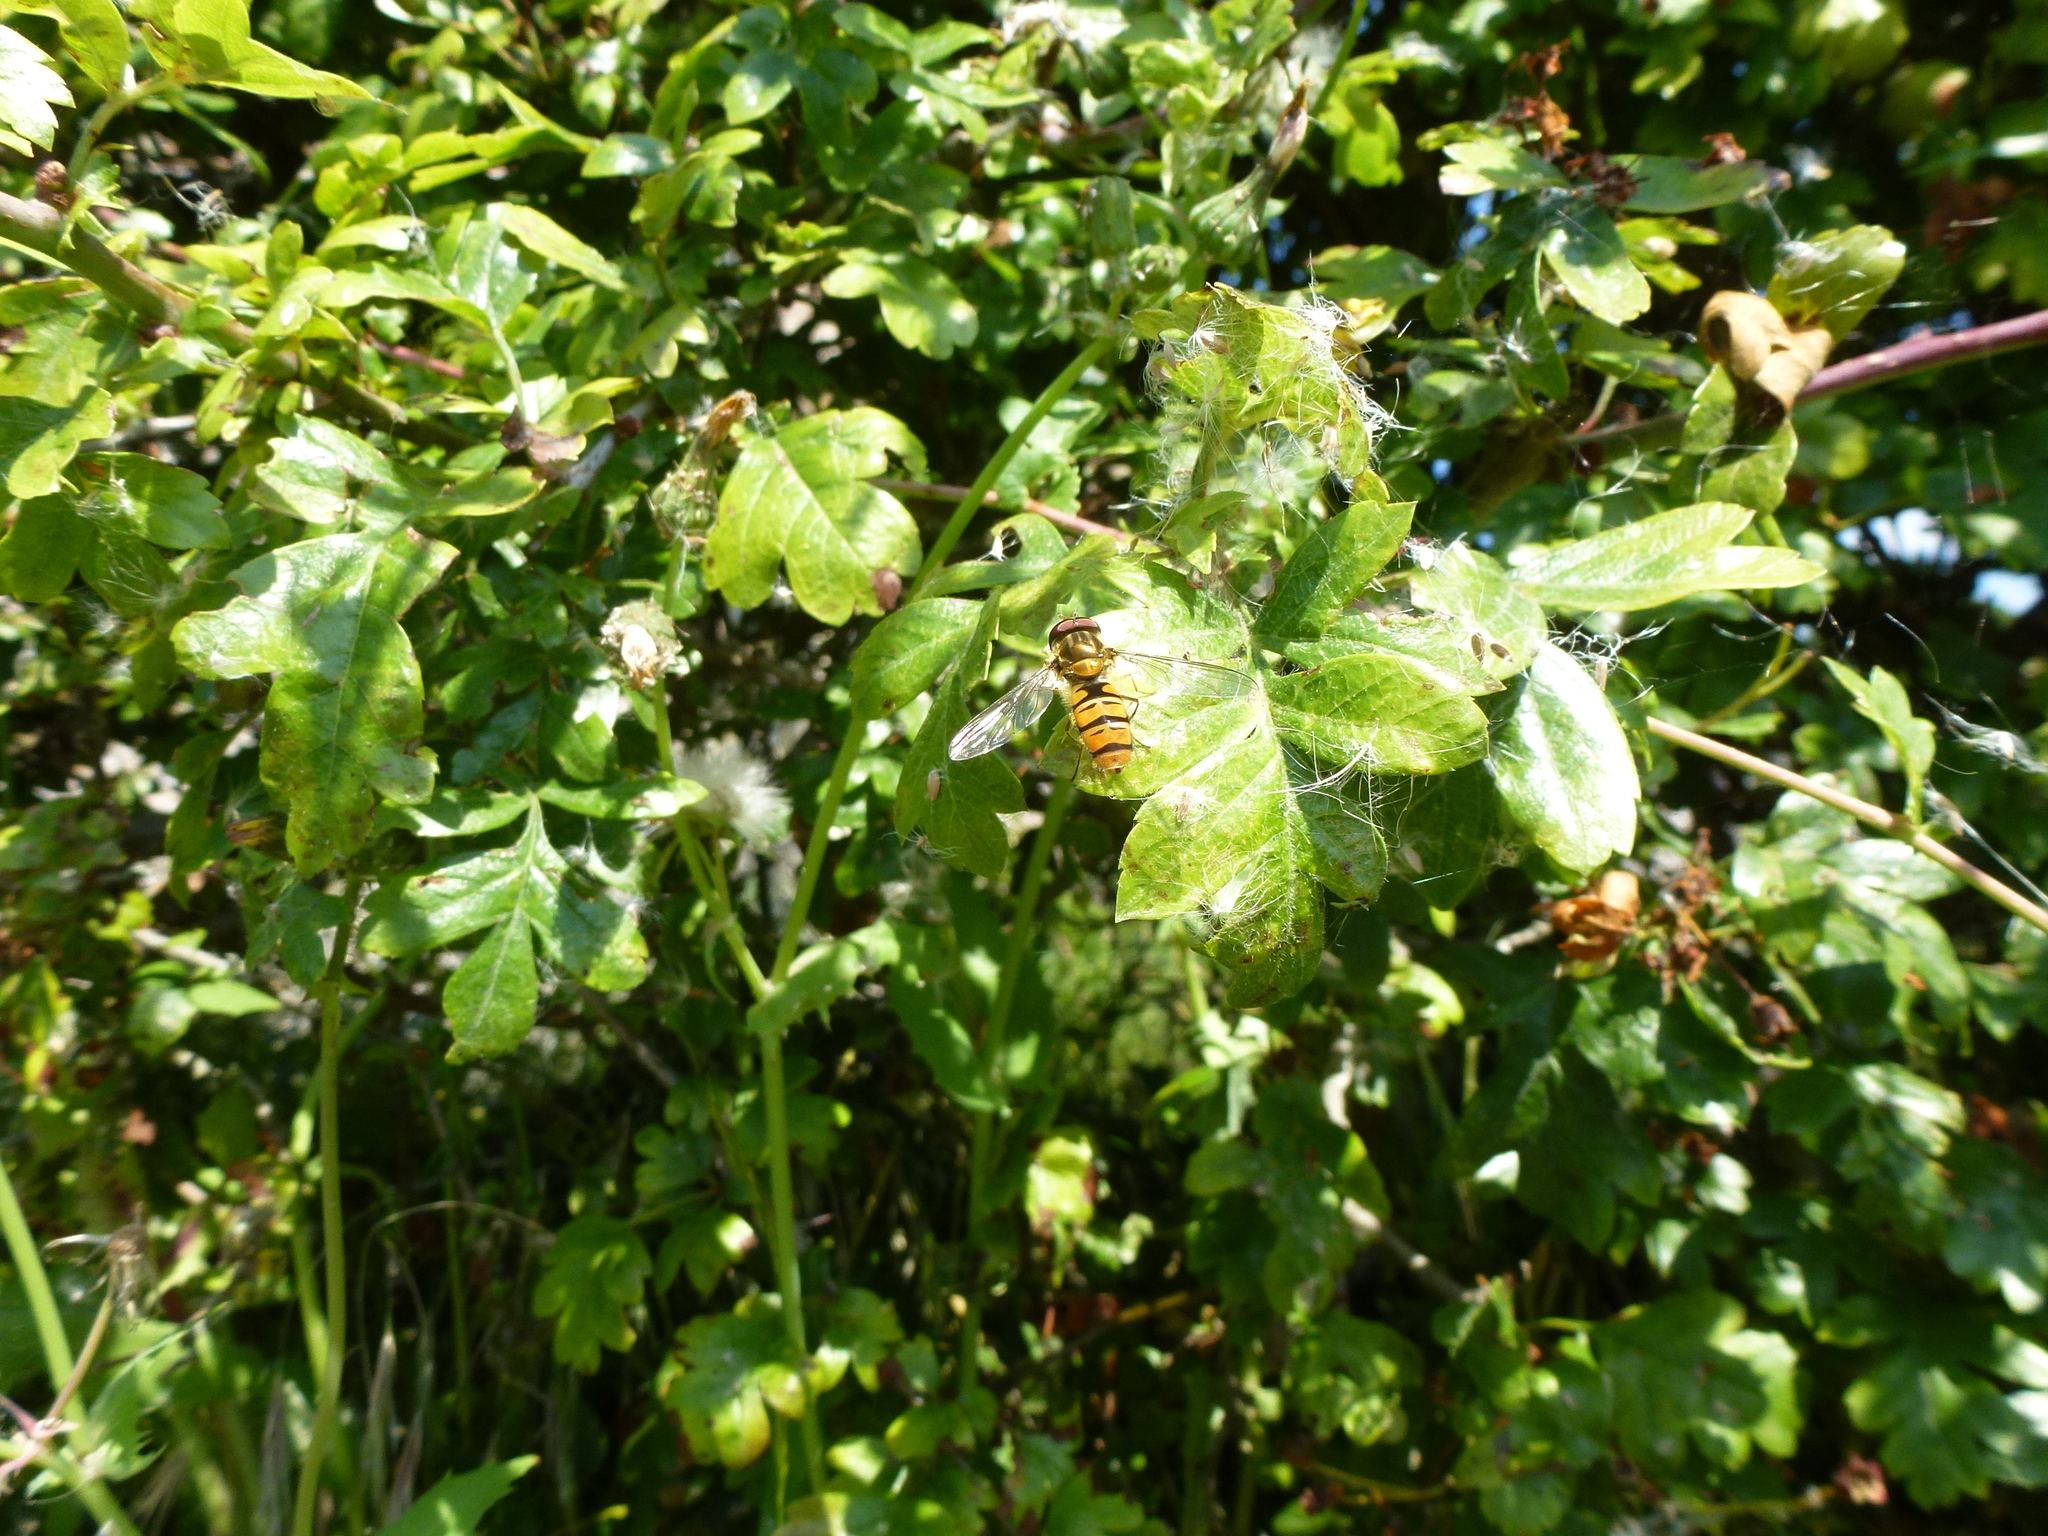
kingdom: Animalia
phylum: Arthropoda
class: Insecta
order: Diptera
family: Syrphidae
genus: Episyrphus
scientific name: Episyrphus balteatus
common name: Marmalade hoverfly
